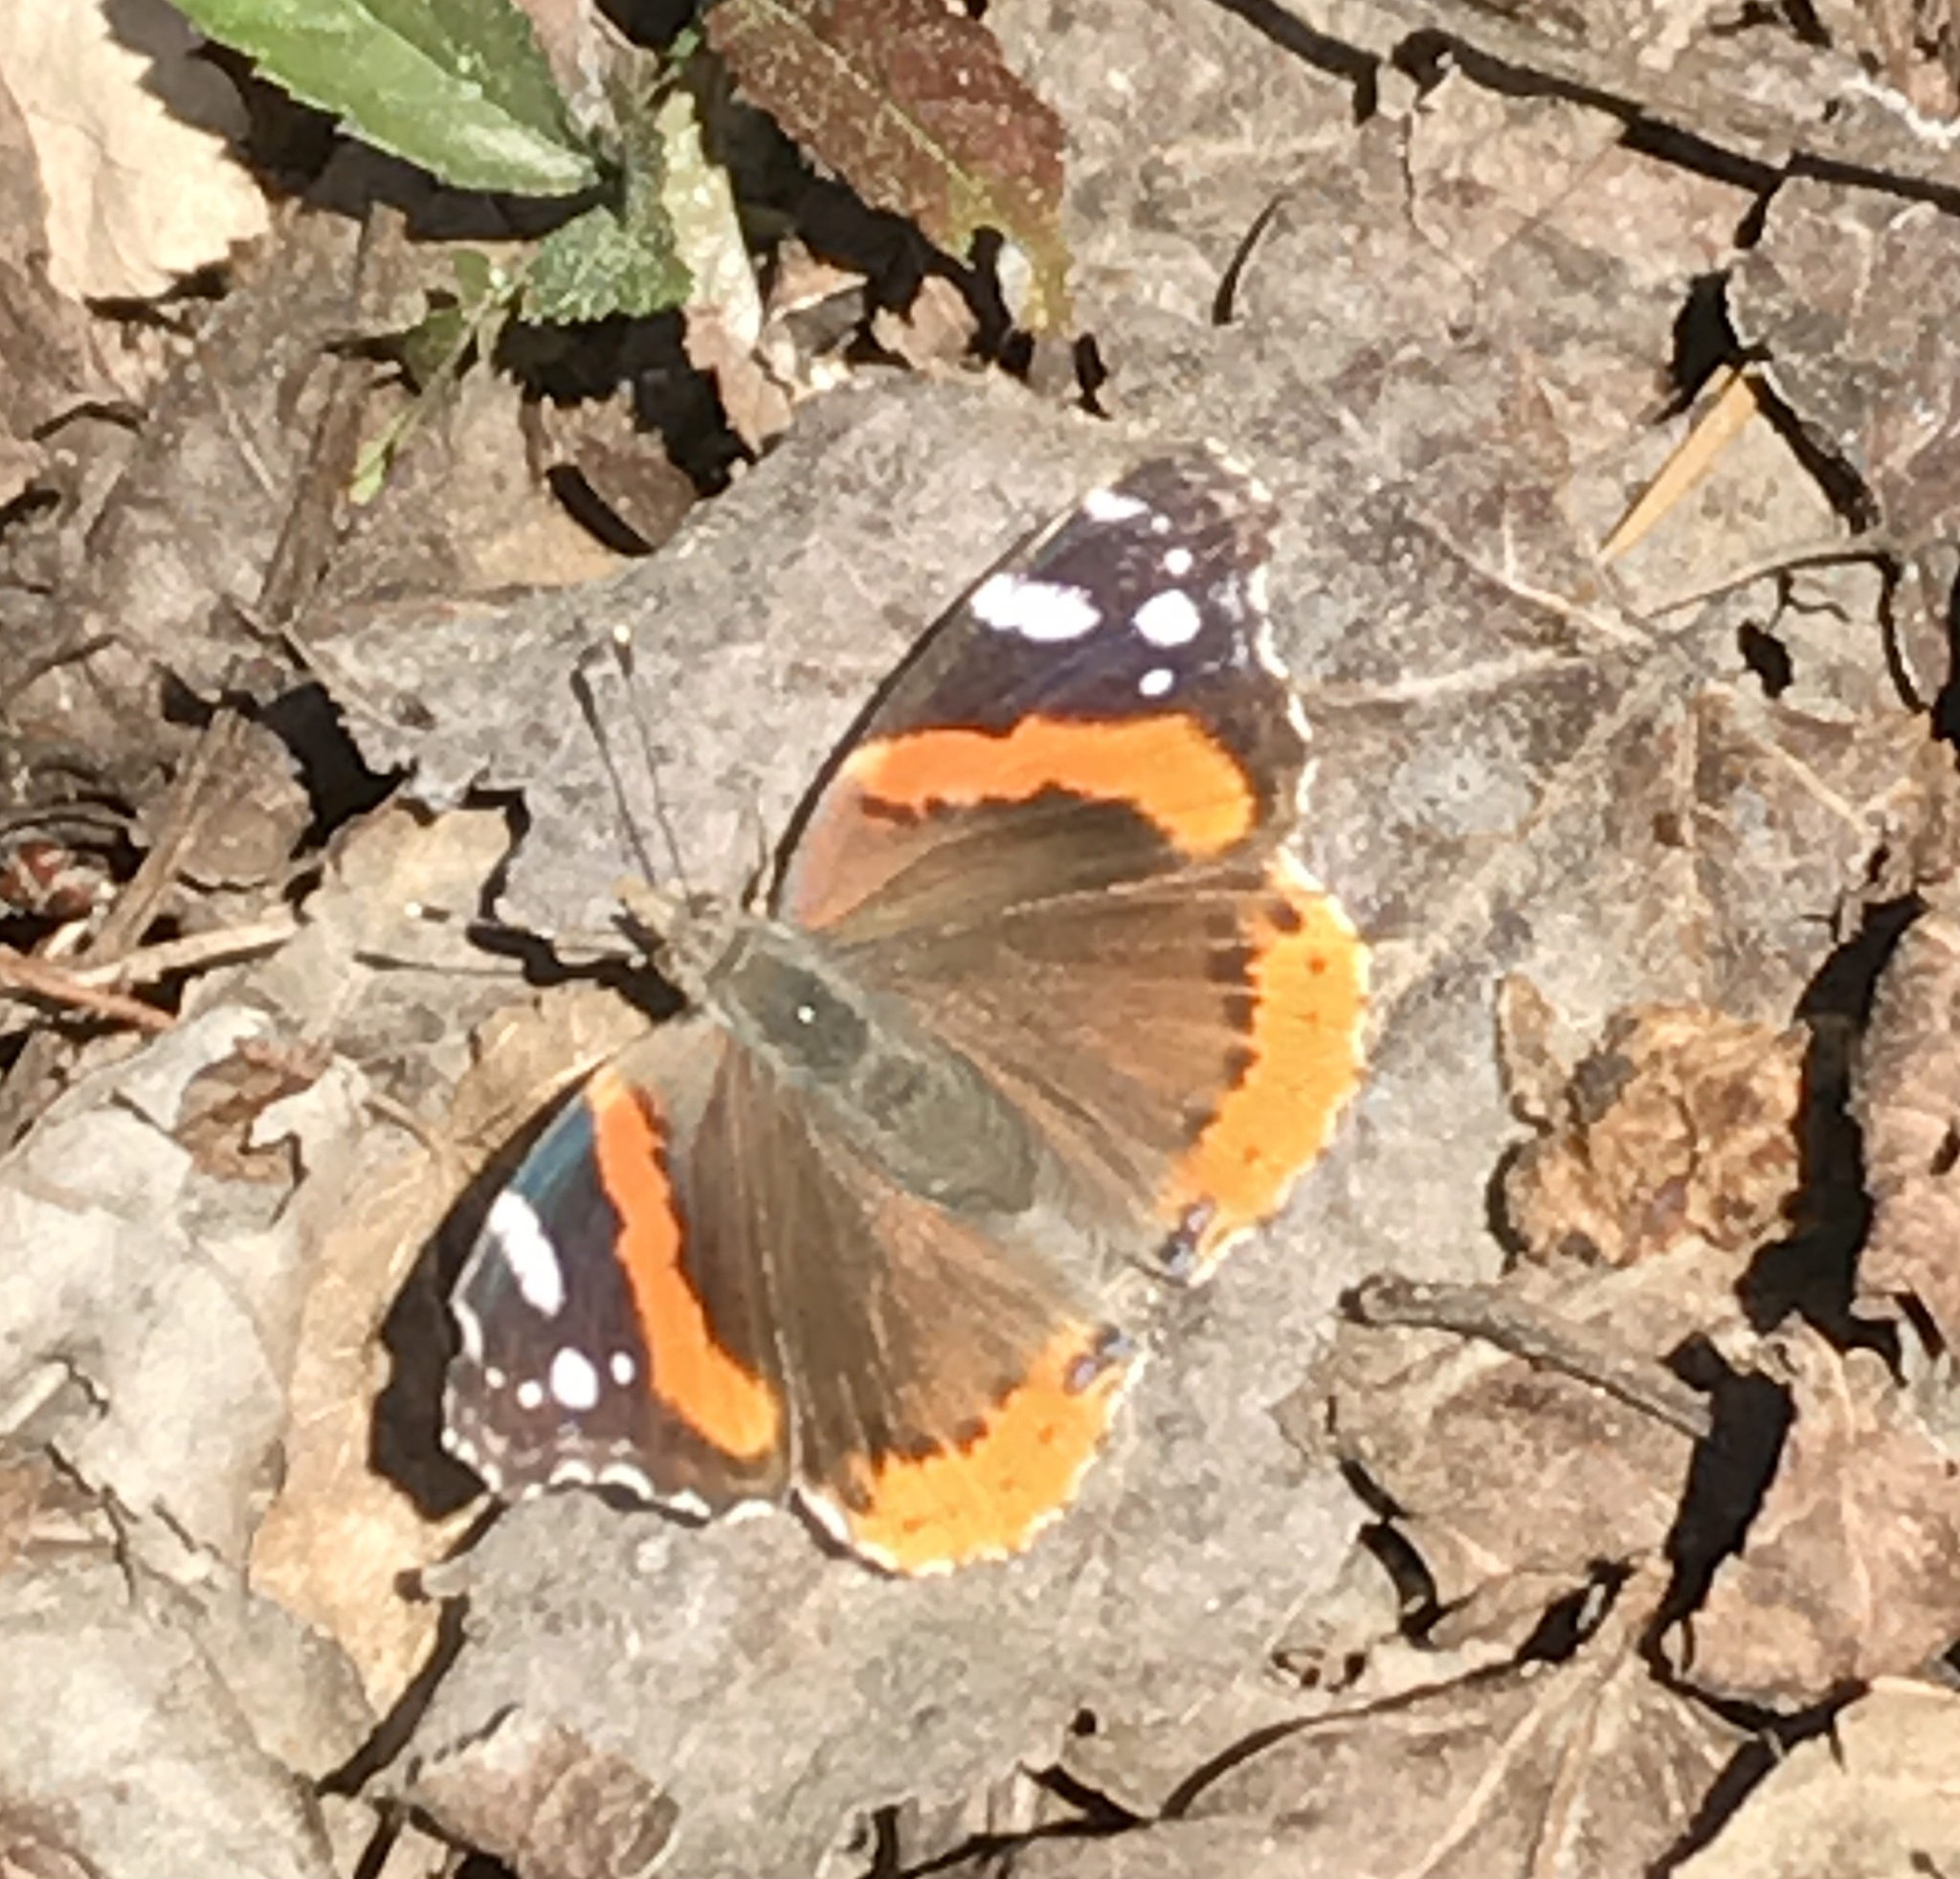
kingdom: Animalia
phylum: Arthropoda
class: Insecta
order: Lepidoptera
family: Nymphalidae
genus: Vanessa
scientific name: Vanessa atalanta
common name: Red admiral
